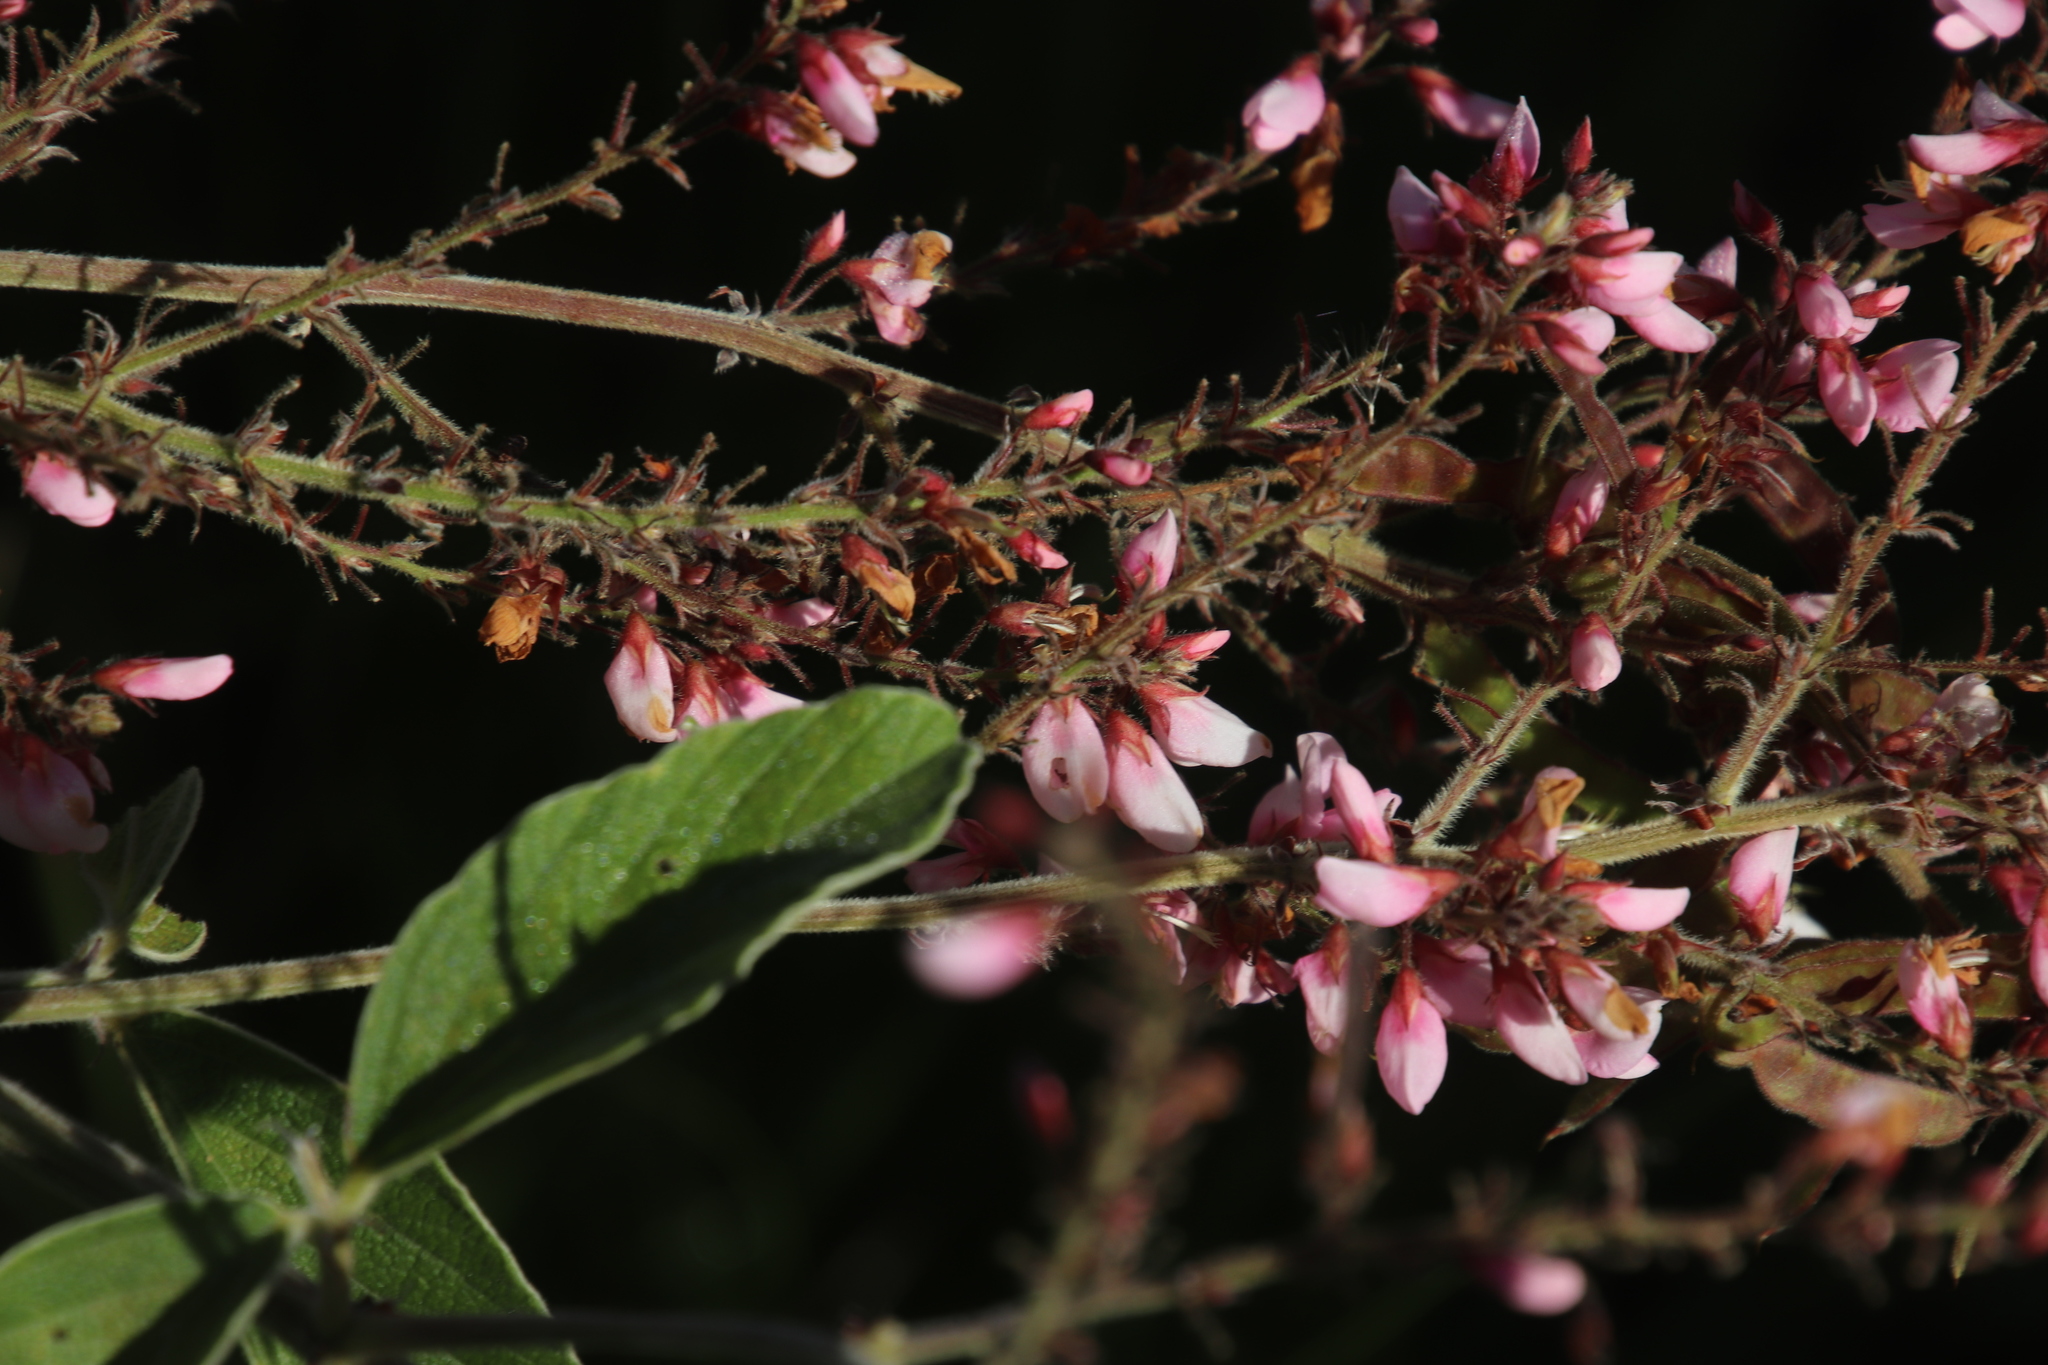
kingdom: Plantae
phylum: Tracheophyta
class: Magnoliopsida
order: Fabales
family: Fabaceae
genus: Pseudarthria
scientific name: Pseudarthria hookeri
